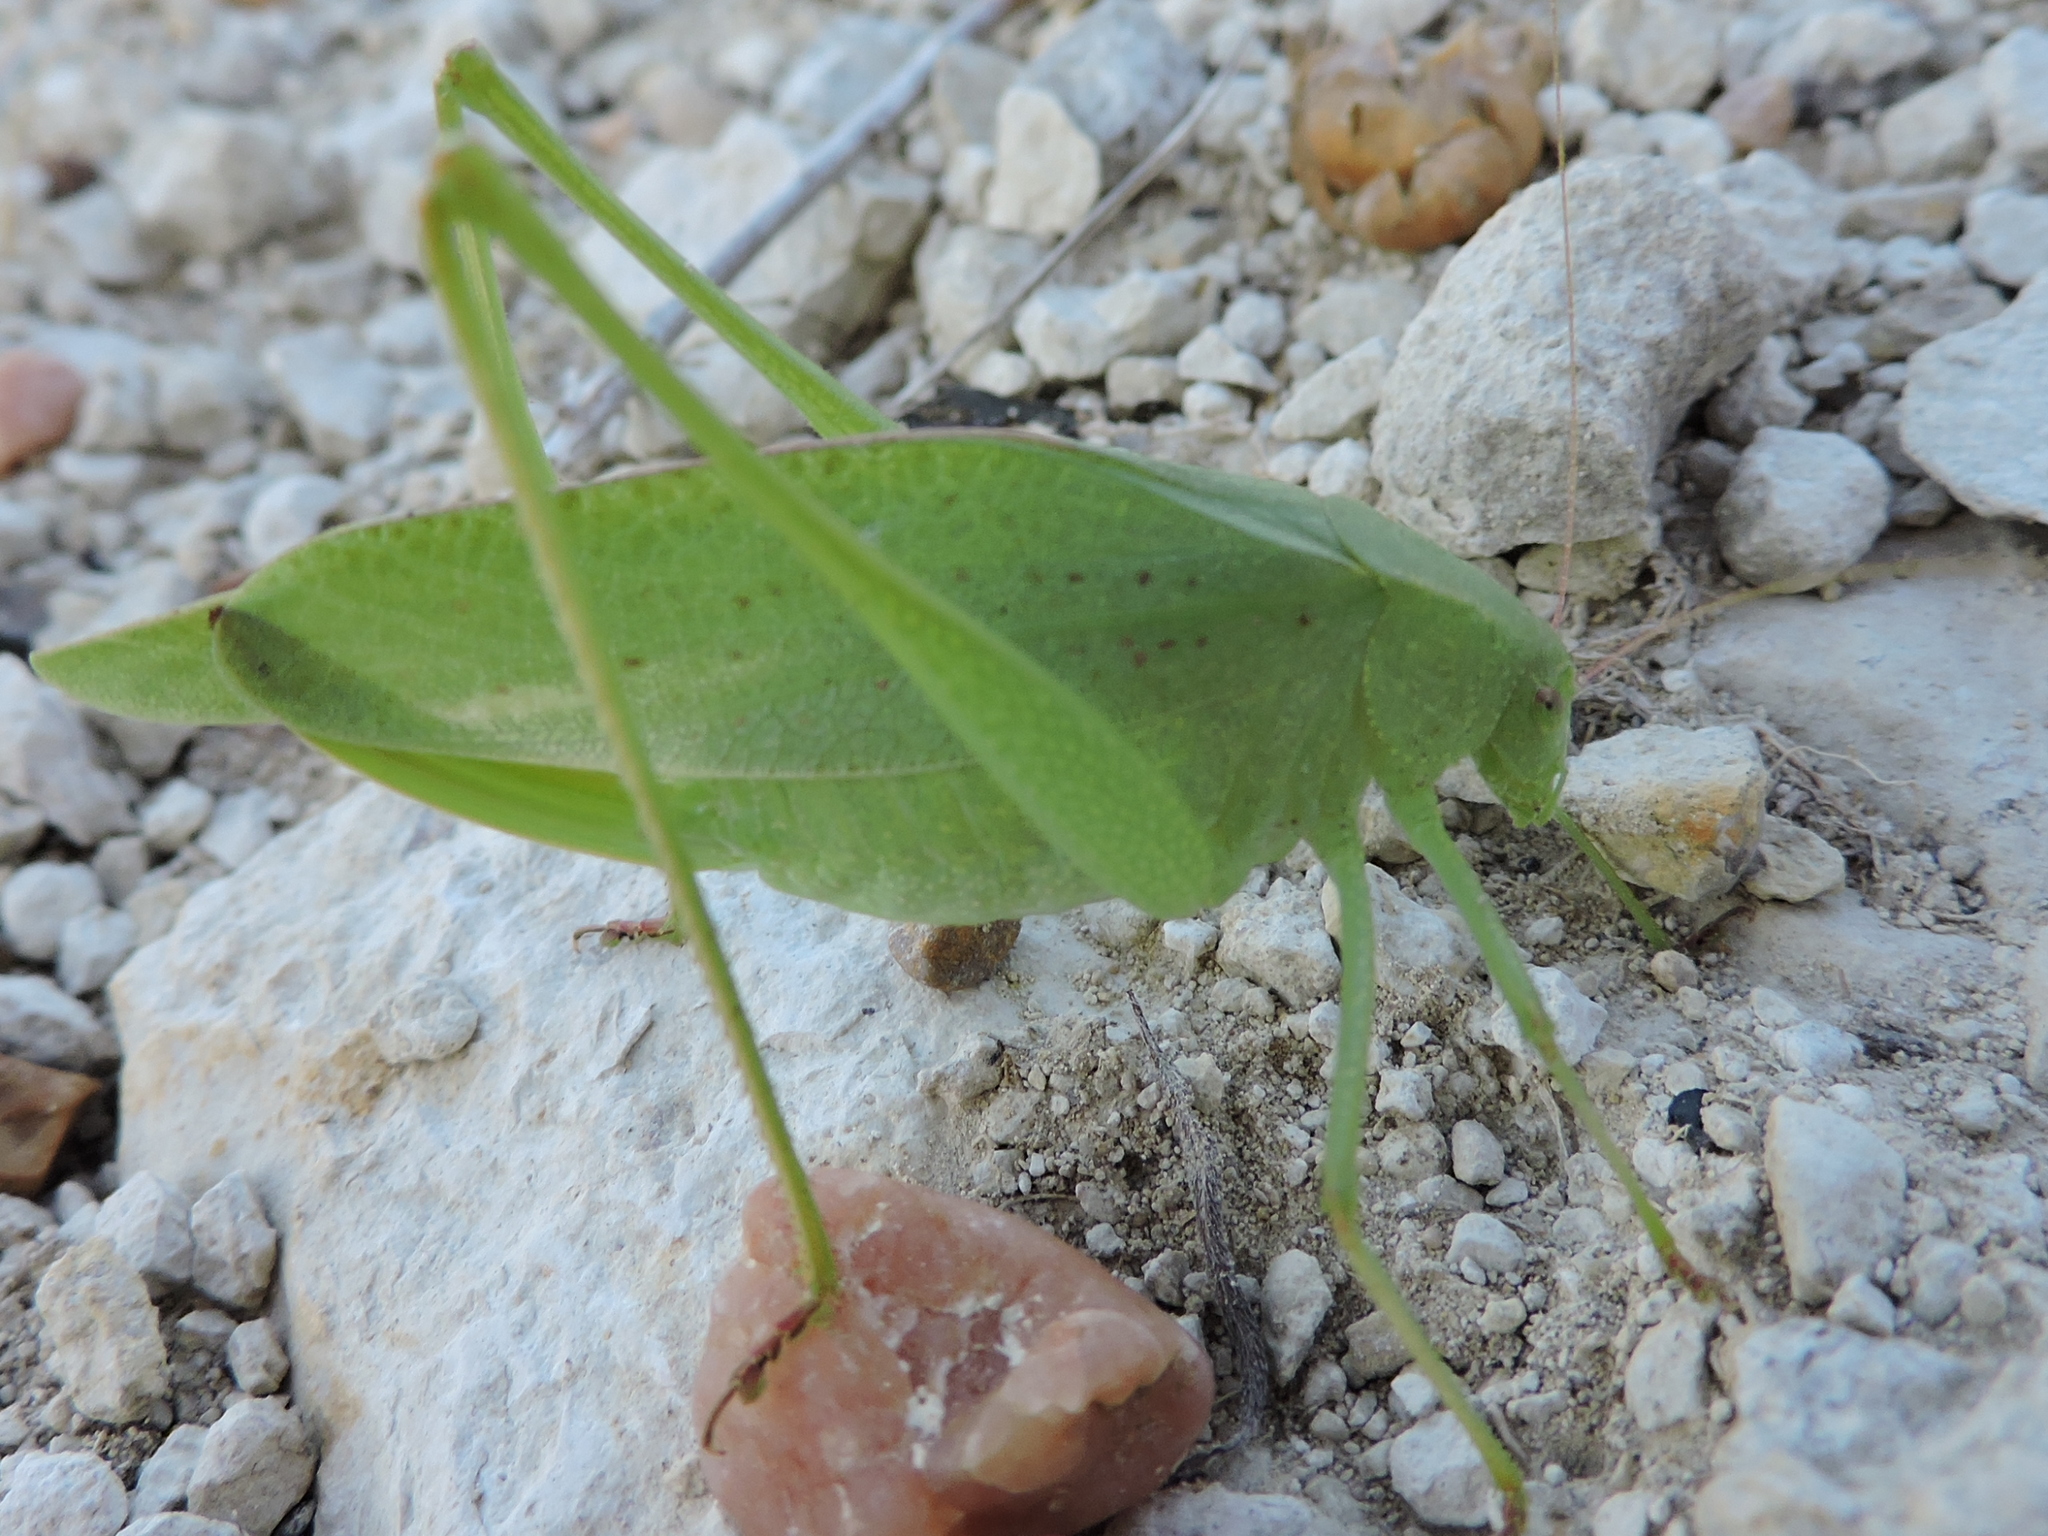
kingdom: Animalia
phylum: Arthropoda
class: Insecta
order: Orthoptera
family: Tettigoniidae
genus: Amblycorypha
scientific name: Amblycorypha huasteca
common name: Texas false katydid
